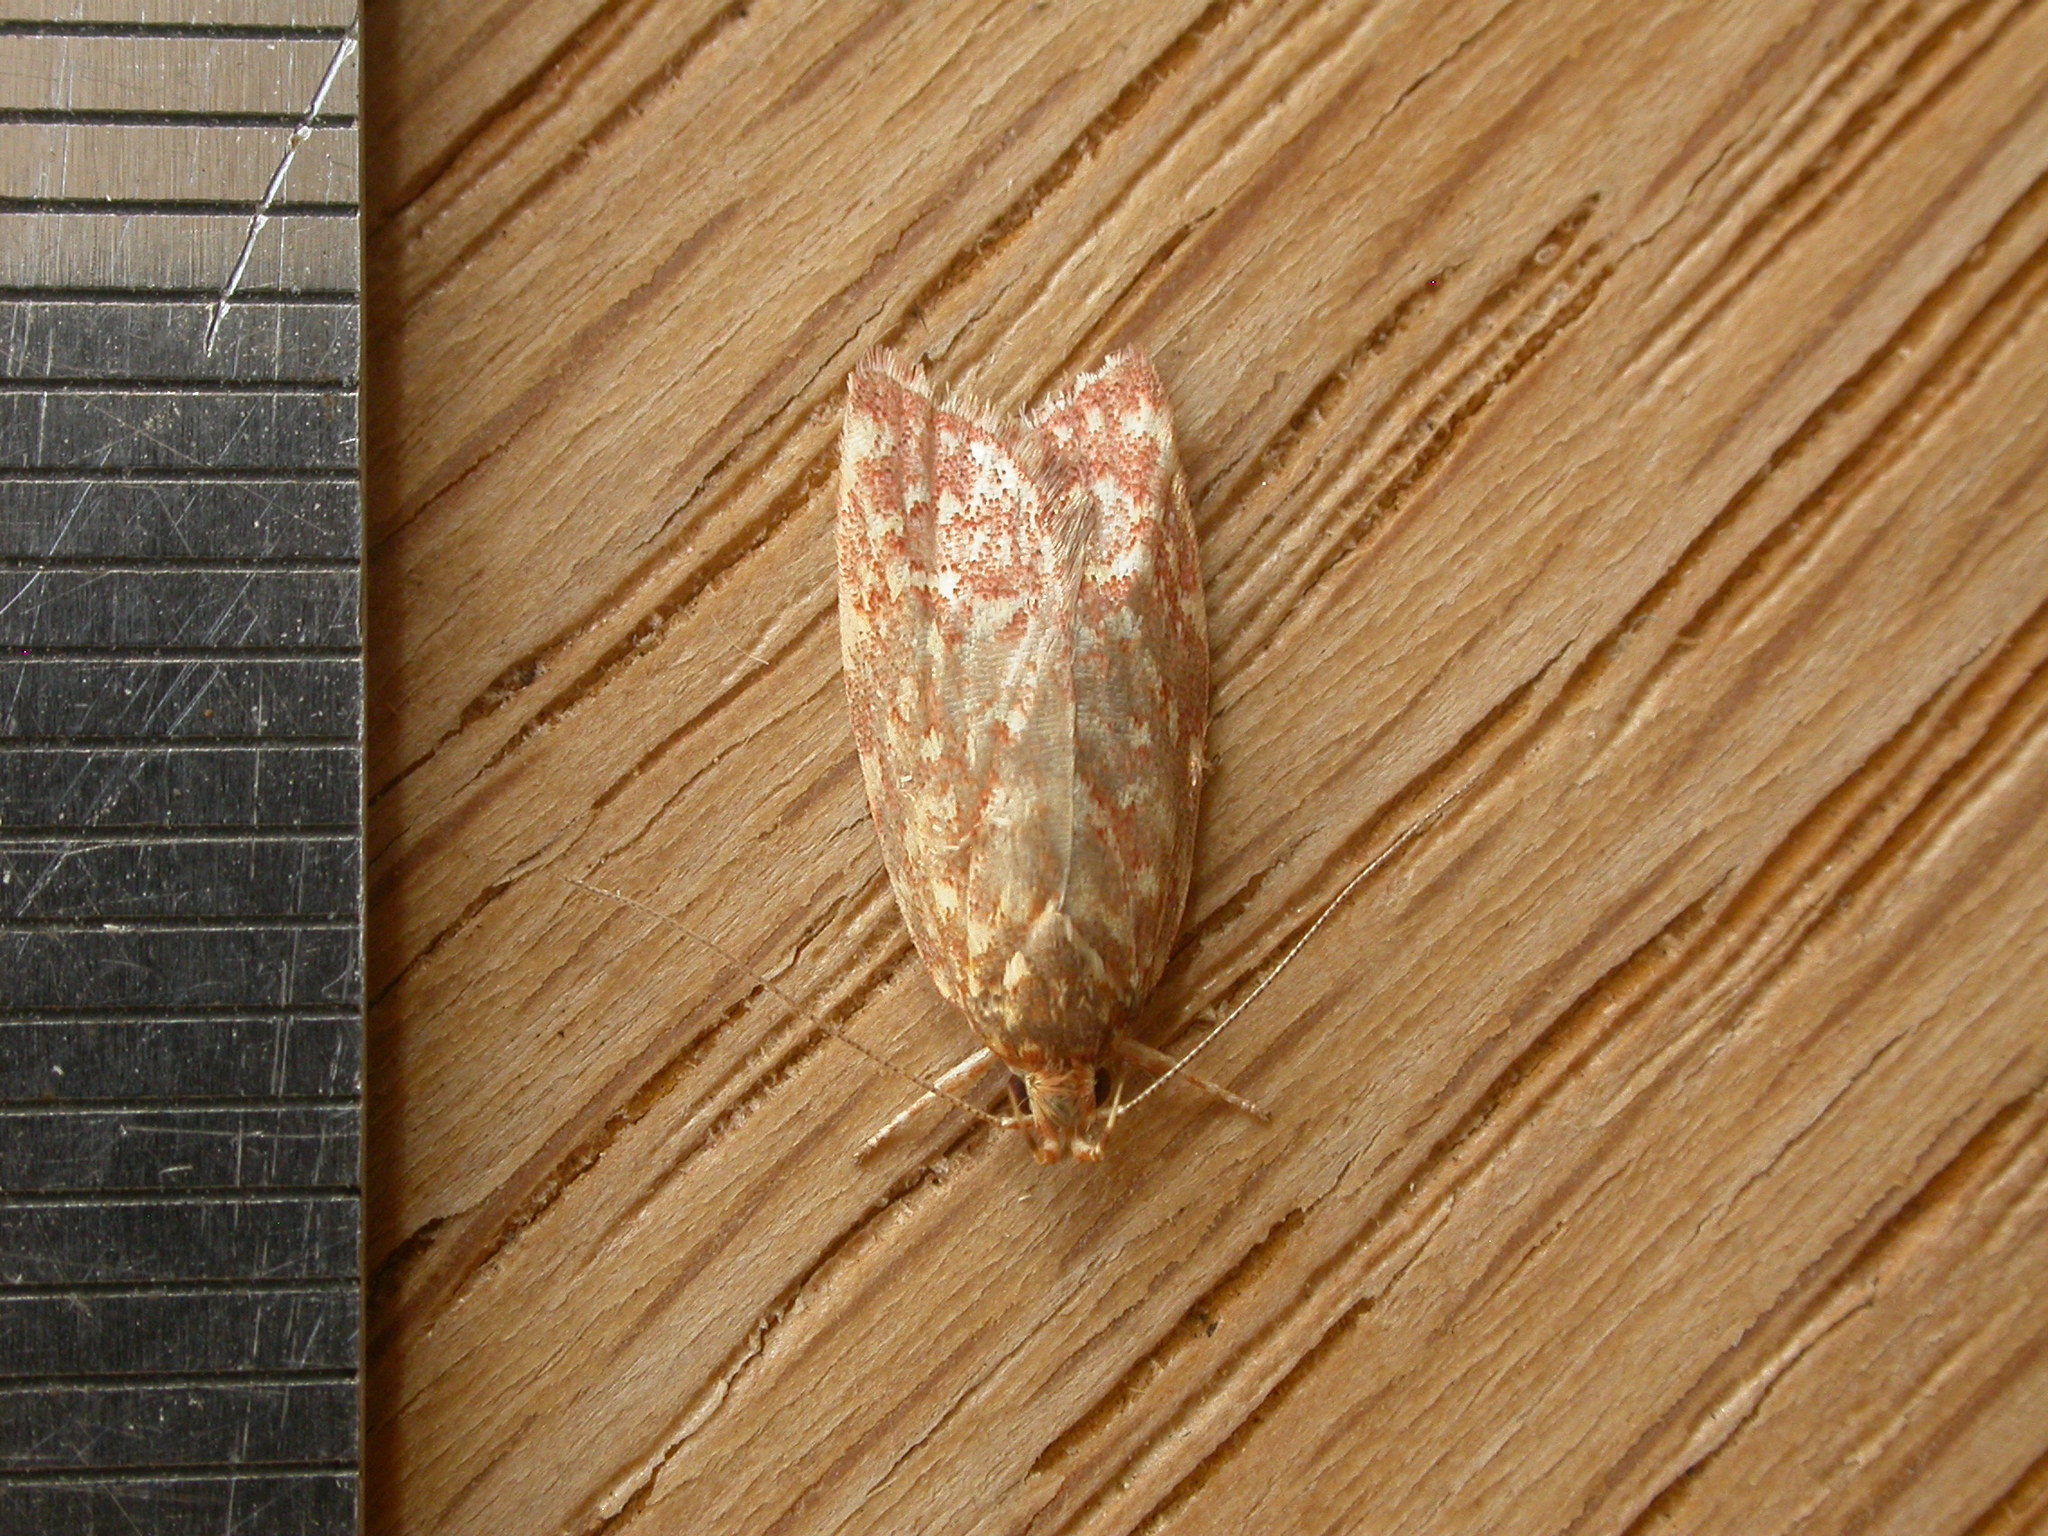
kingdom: Animalia
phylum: Arthropoda
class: Insecta
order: Lepidoptera
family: Oecophoridae
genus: Syringoseca
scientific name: Syringoseca rhodoxantha
